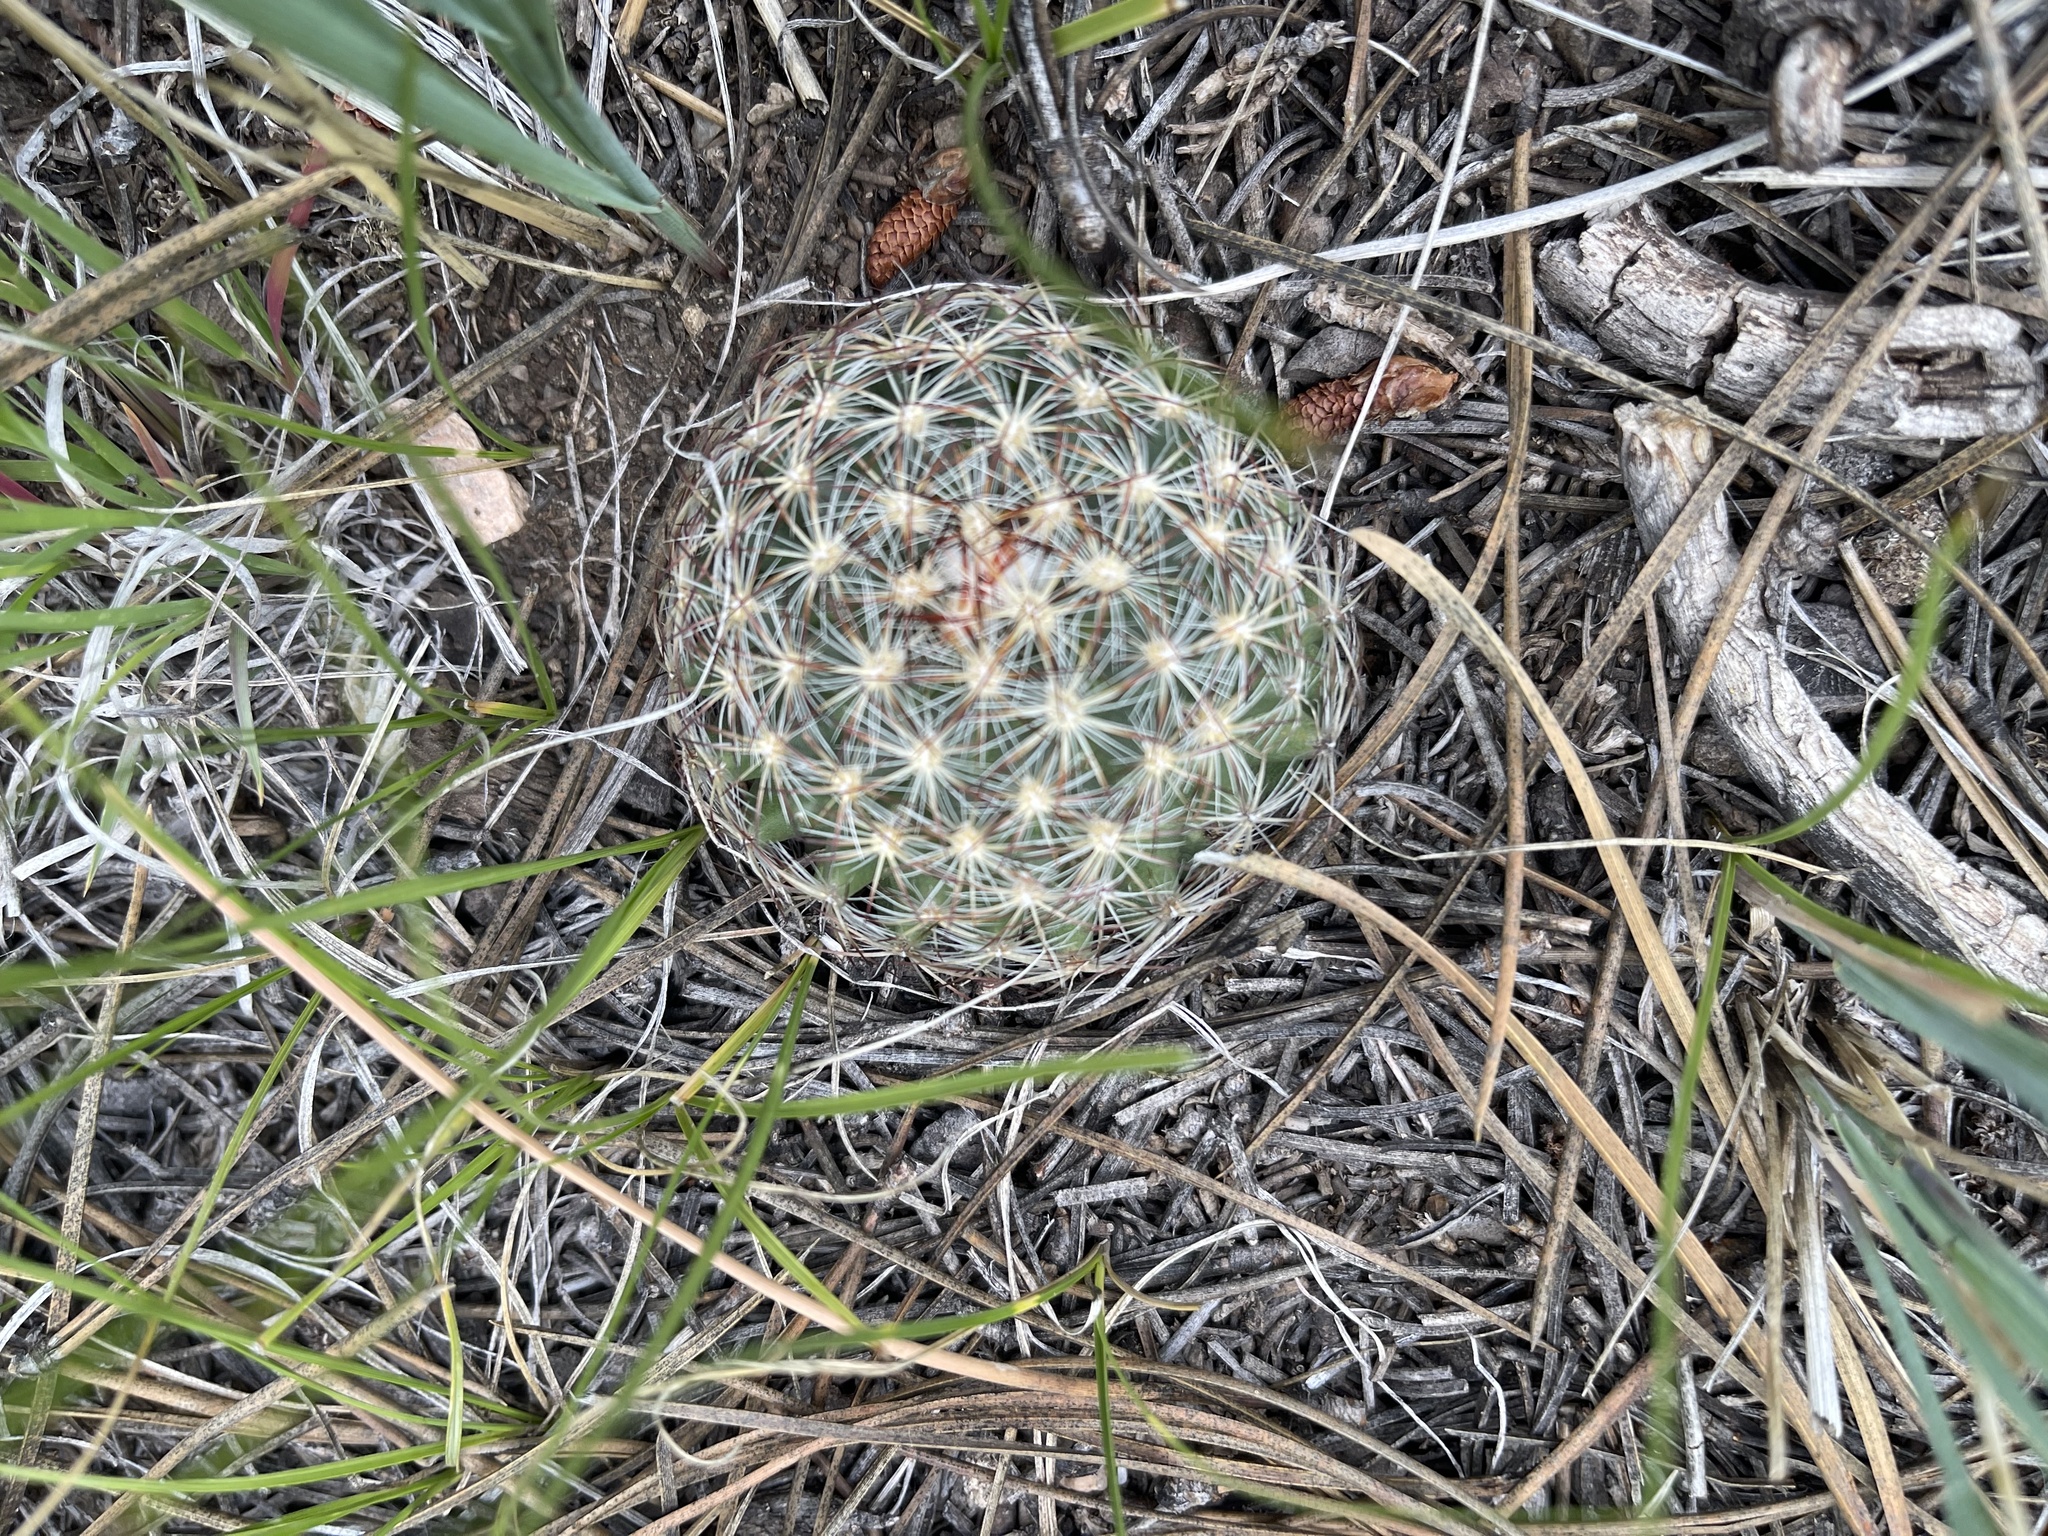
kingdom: Plantae
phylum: Tracheophyta
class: Magnoliopsida
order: Caryophyllales
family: Cactaceae
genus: Pediocactus
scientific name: Pediocactus simpsonii
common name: Simpson's hedgehog cactus
